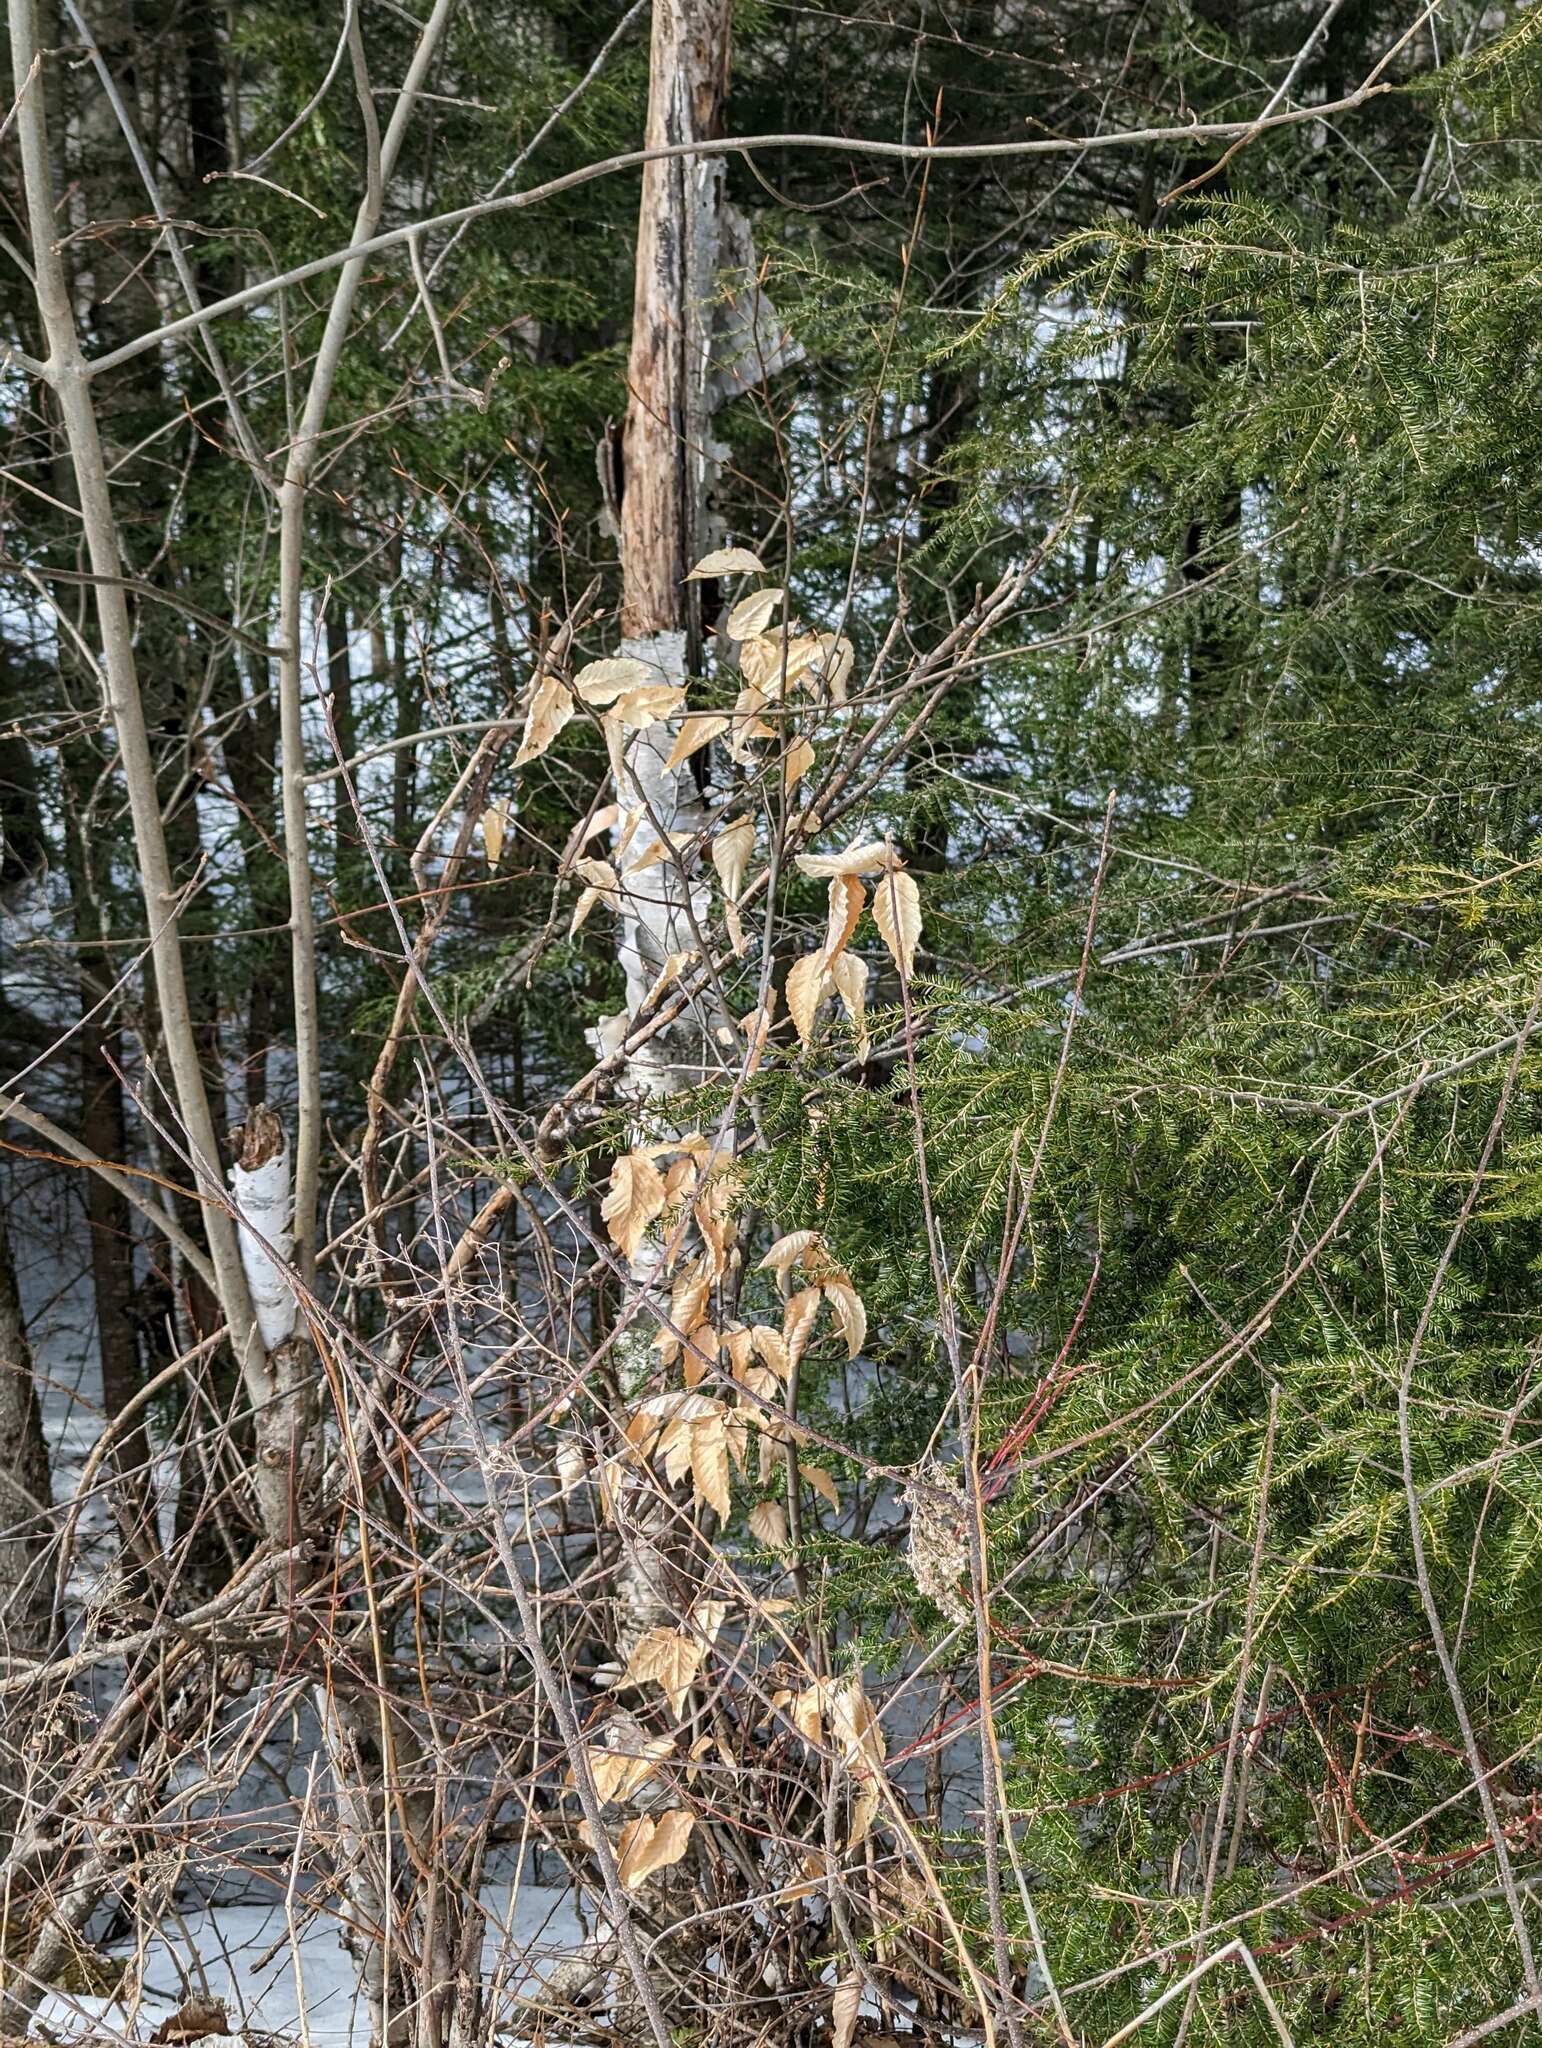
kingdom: Plantae
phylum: Tracheophyta
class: Magnoliopsida
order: Fagales
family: Fagaceae
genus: Fagus
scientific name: Fagus grandifolia
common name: American beech
